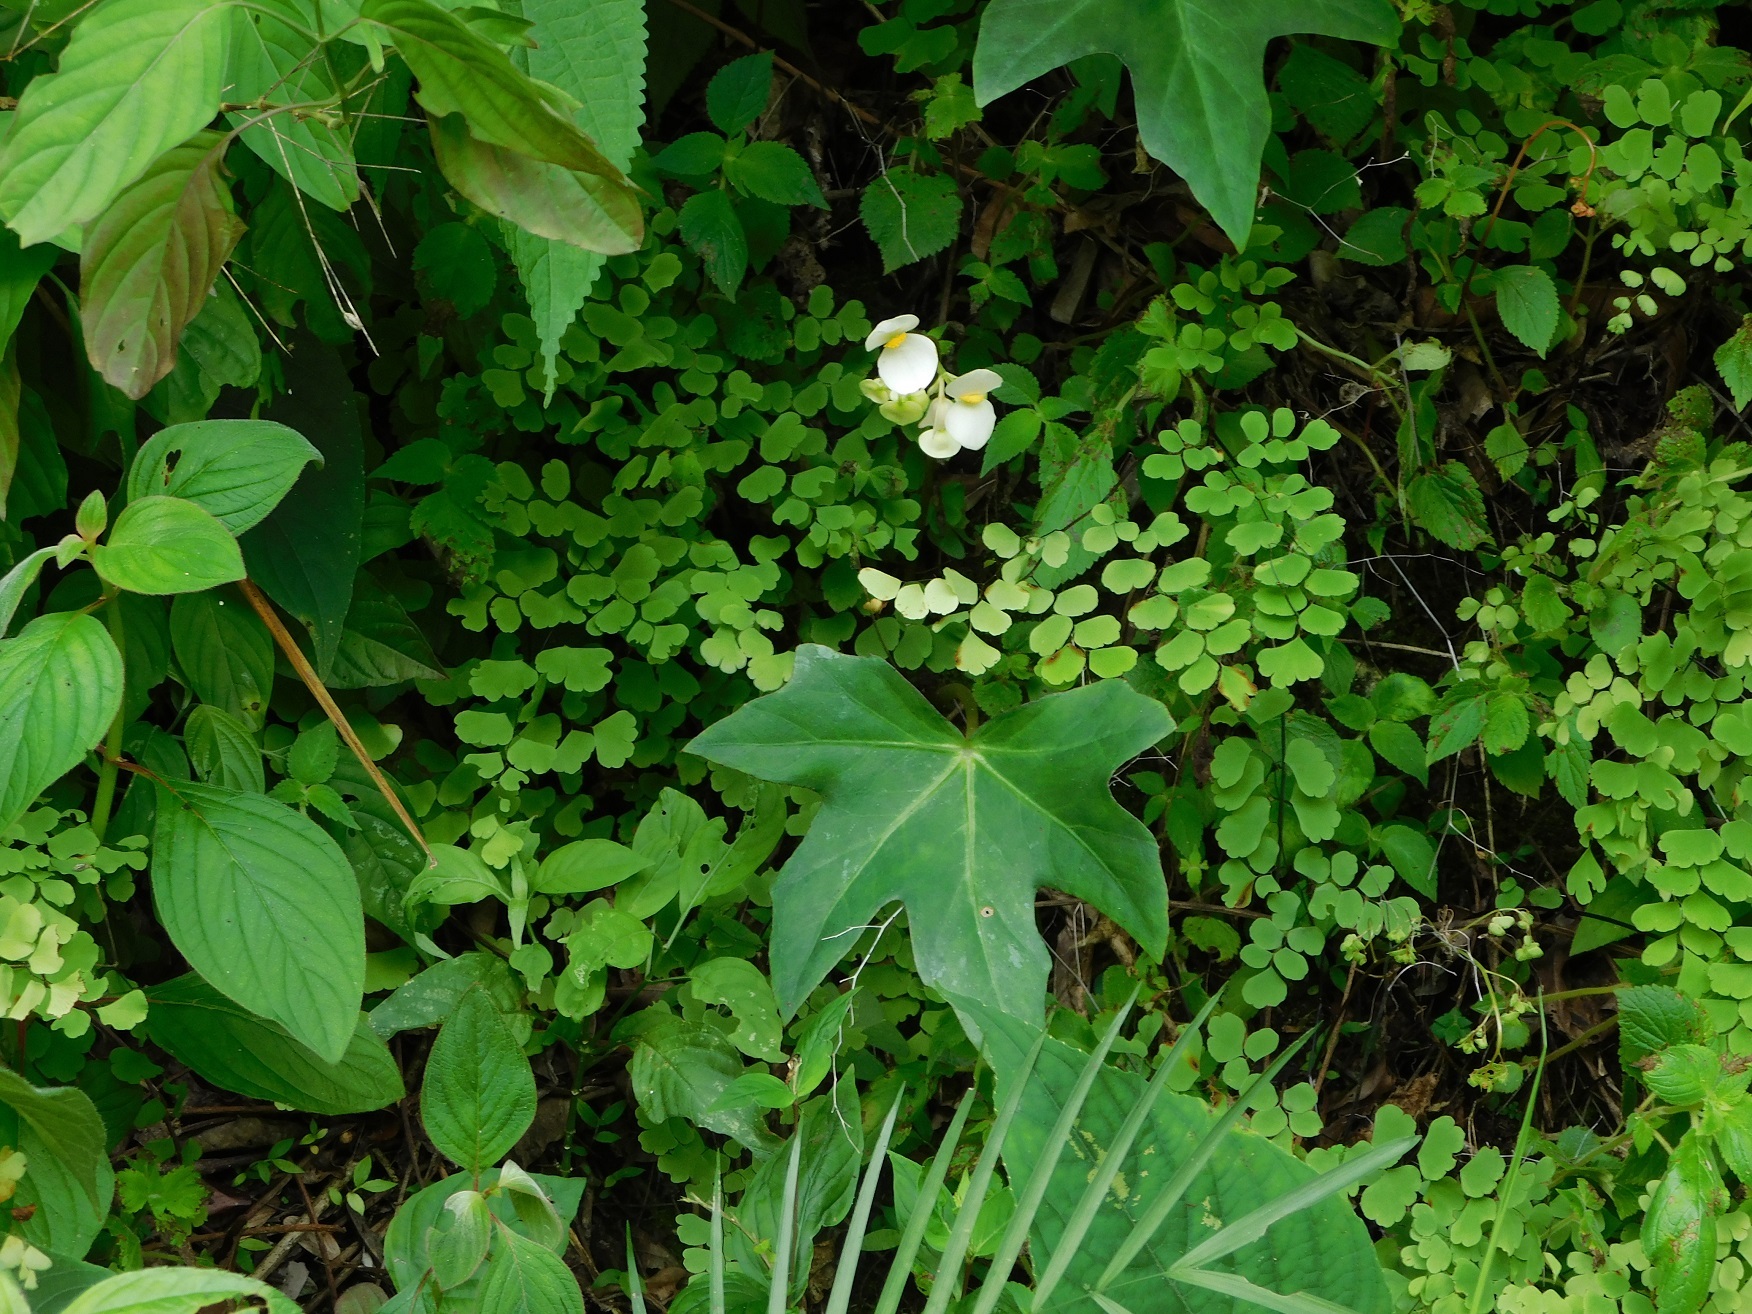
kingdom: Plantae
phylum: Tracheophyta
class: Magnoliopsida
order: Cucurbitales
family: Begoniaceae
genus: Begonia
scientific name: Begonia corzoensis
